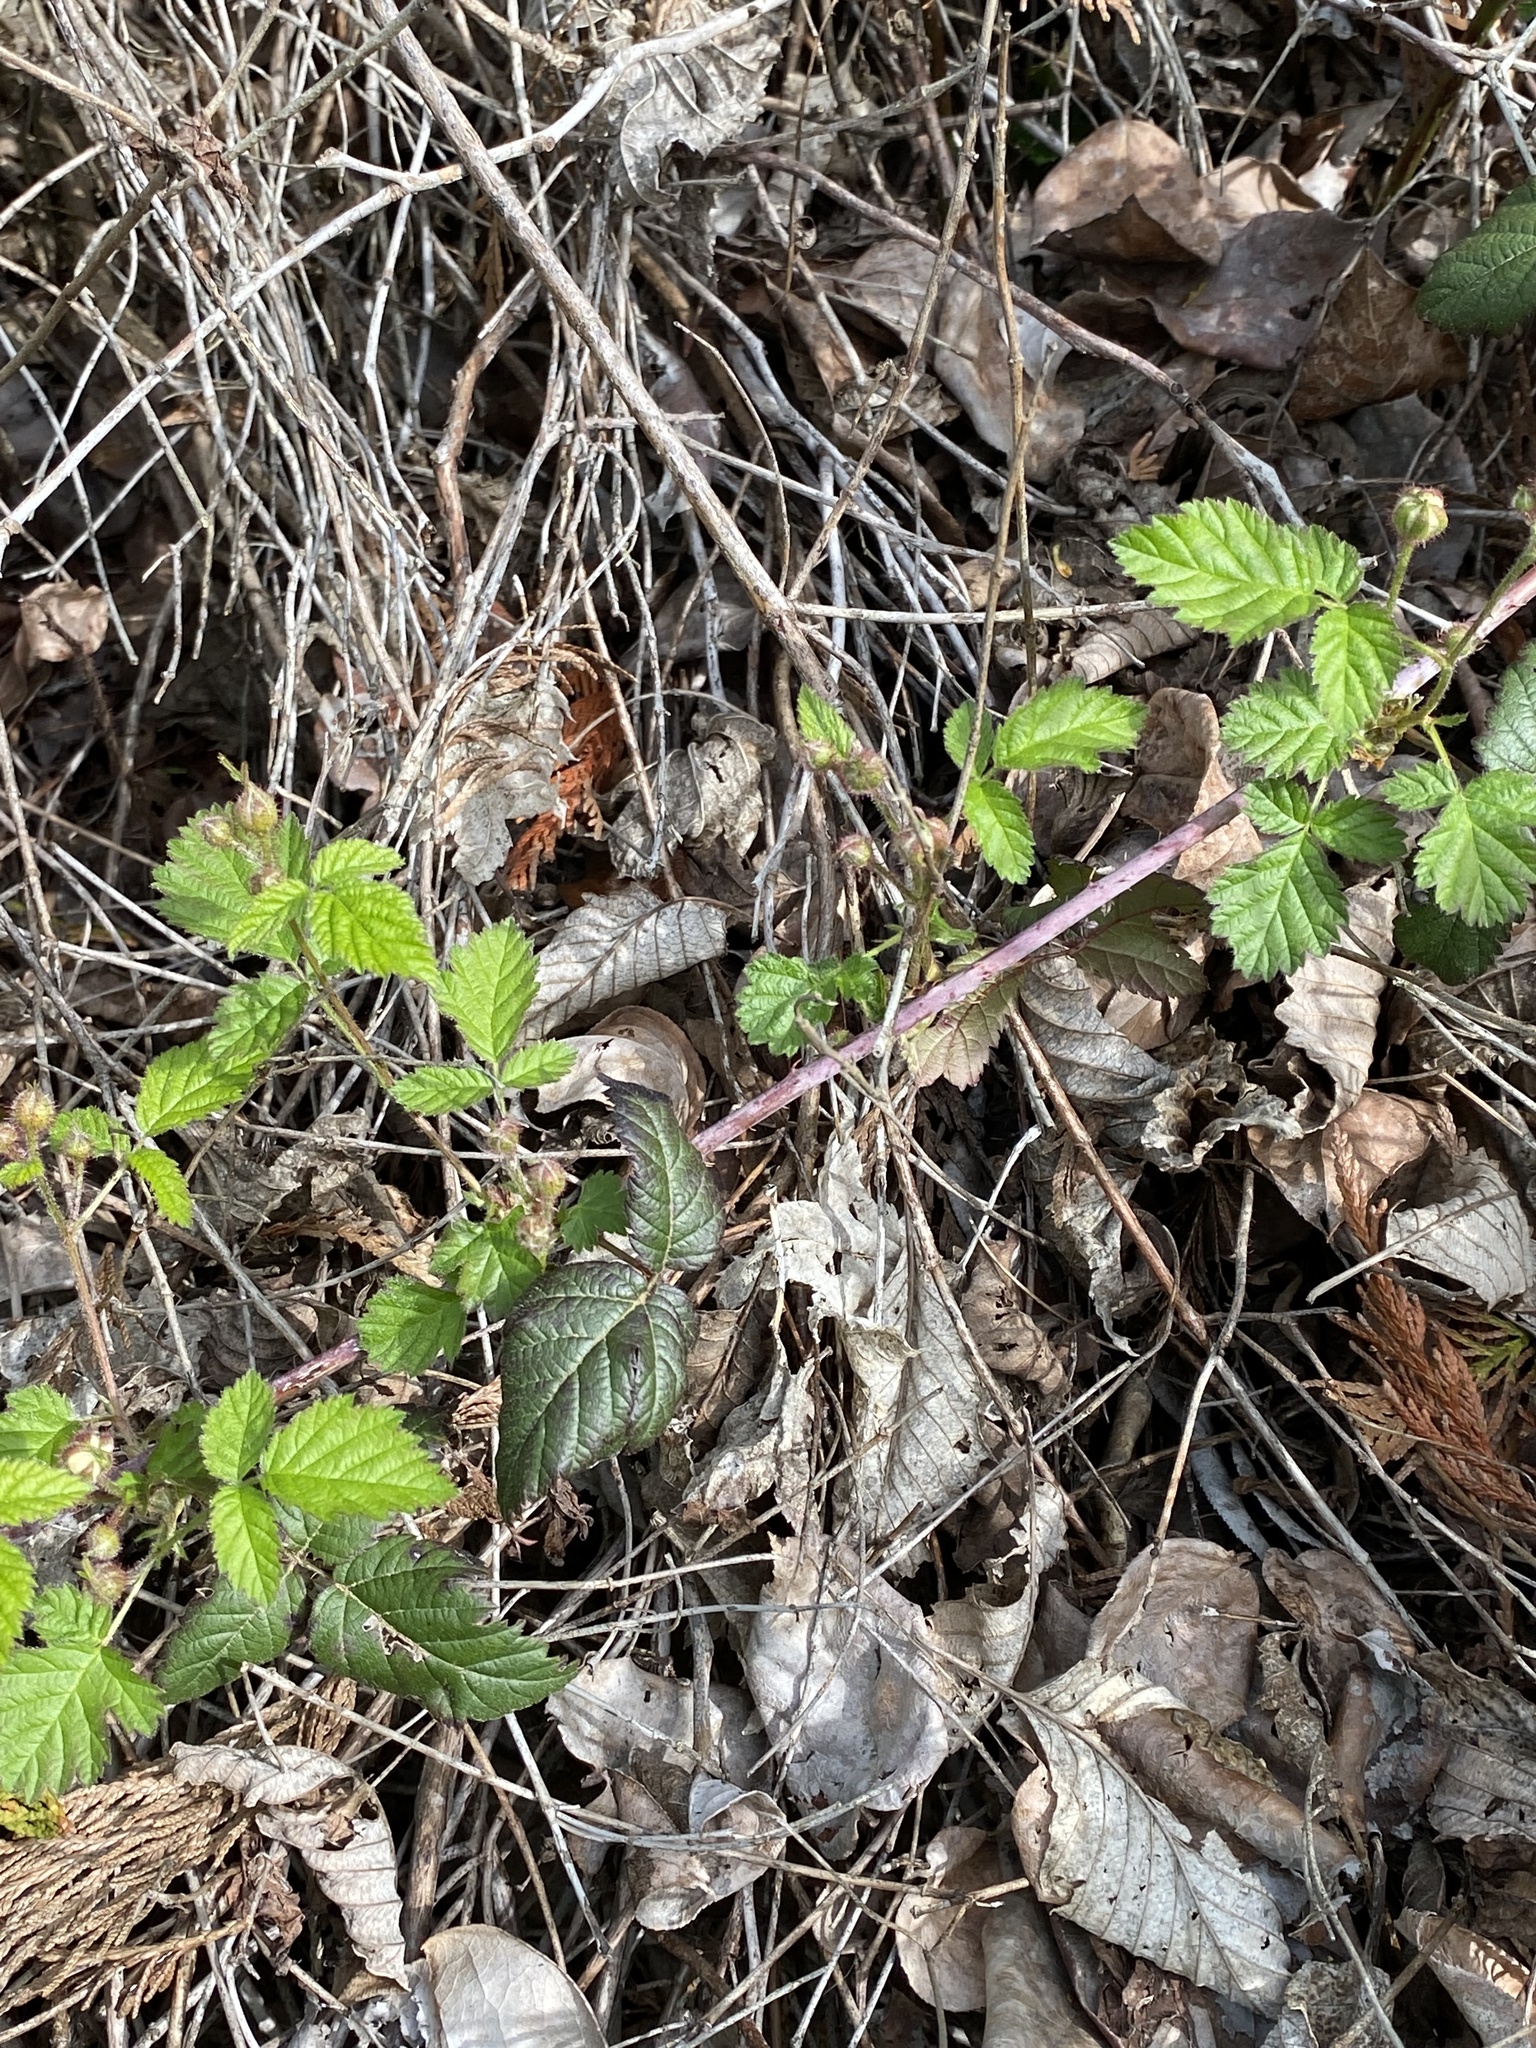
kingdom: Plantae
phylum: Tracheophyta
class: Magnoliopsida
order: Rosales
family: Rosaceae
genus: Rubus
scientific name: Rubus ursinus
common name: Pacific blackberry
